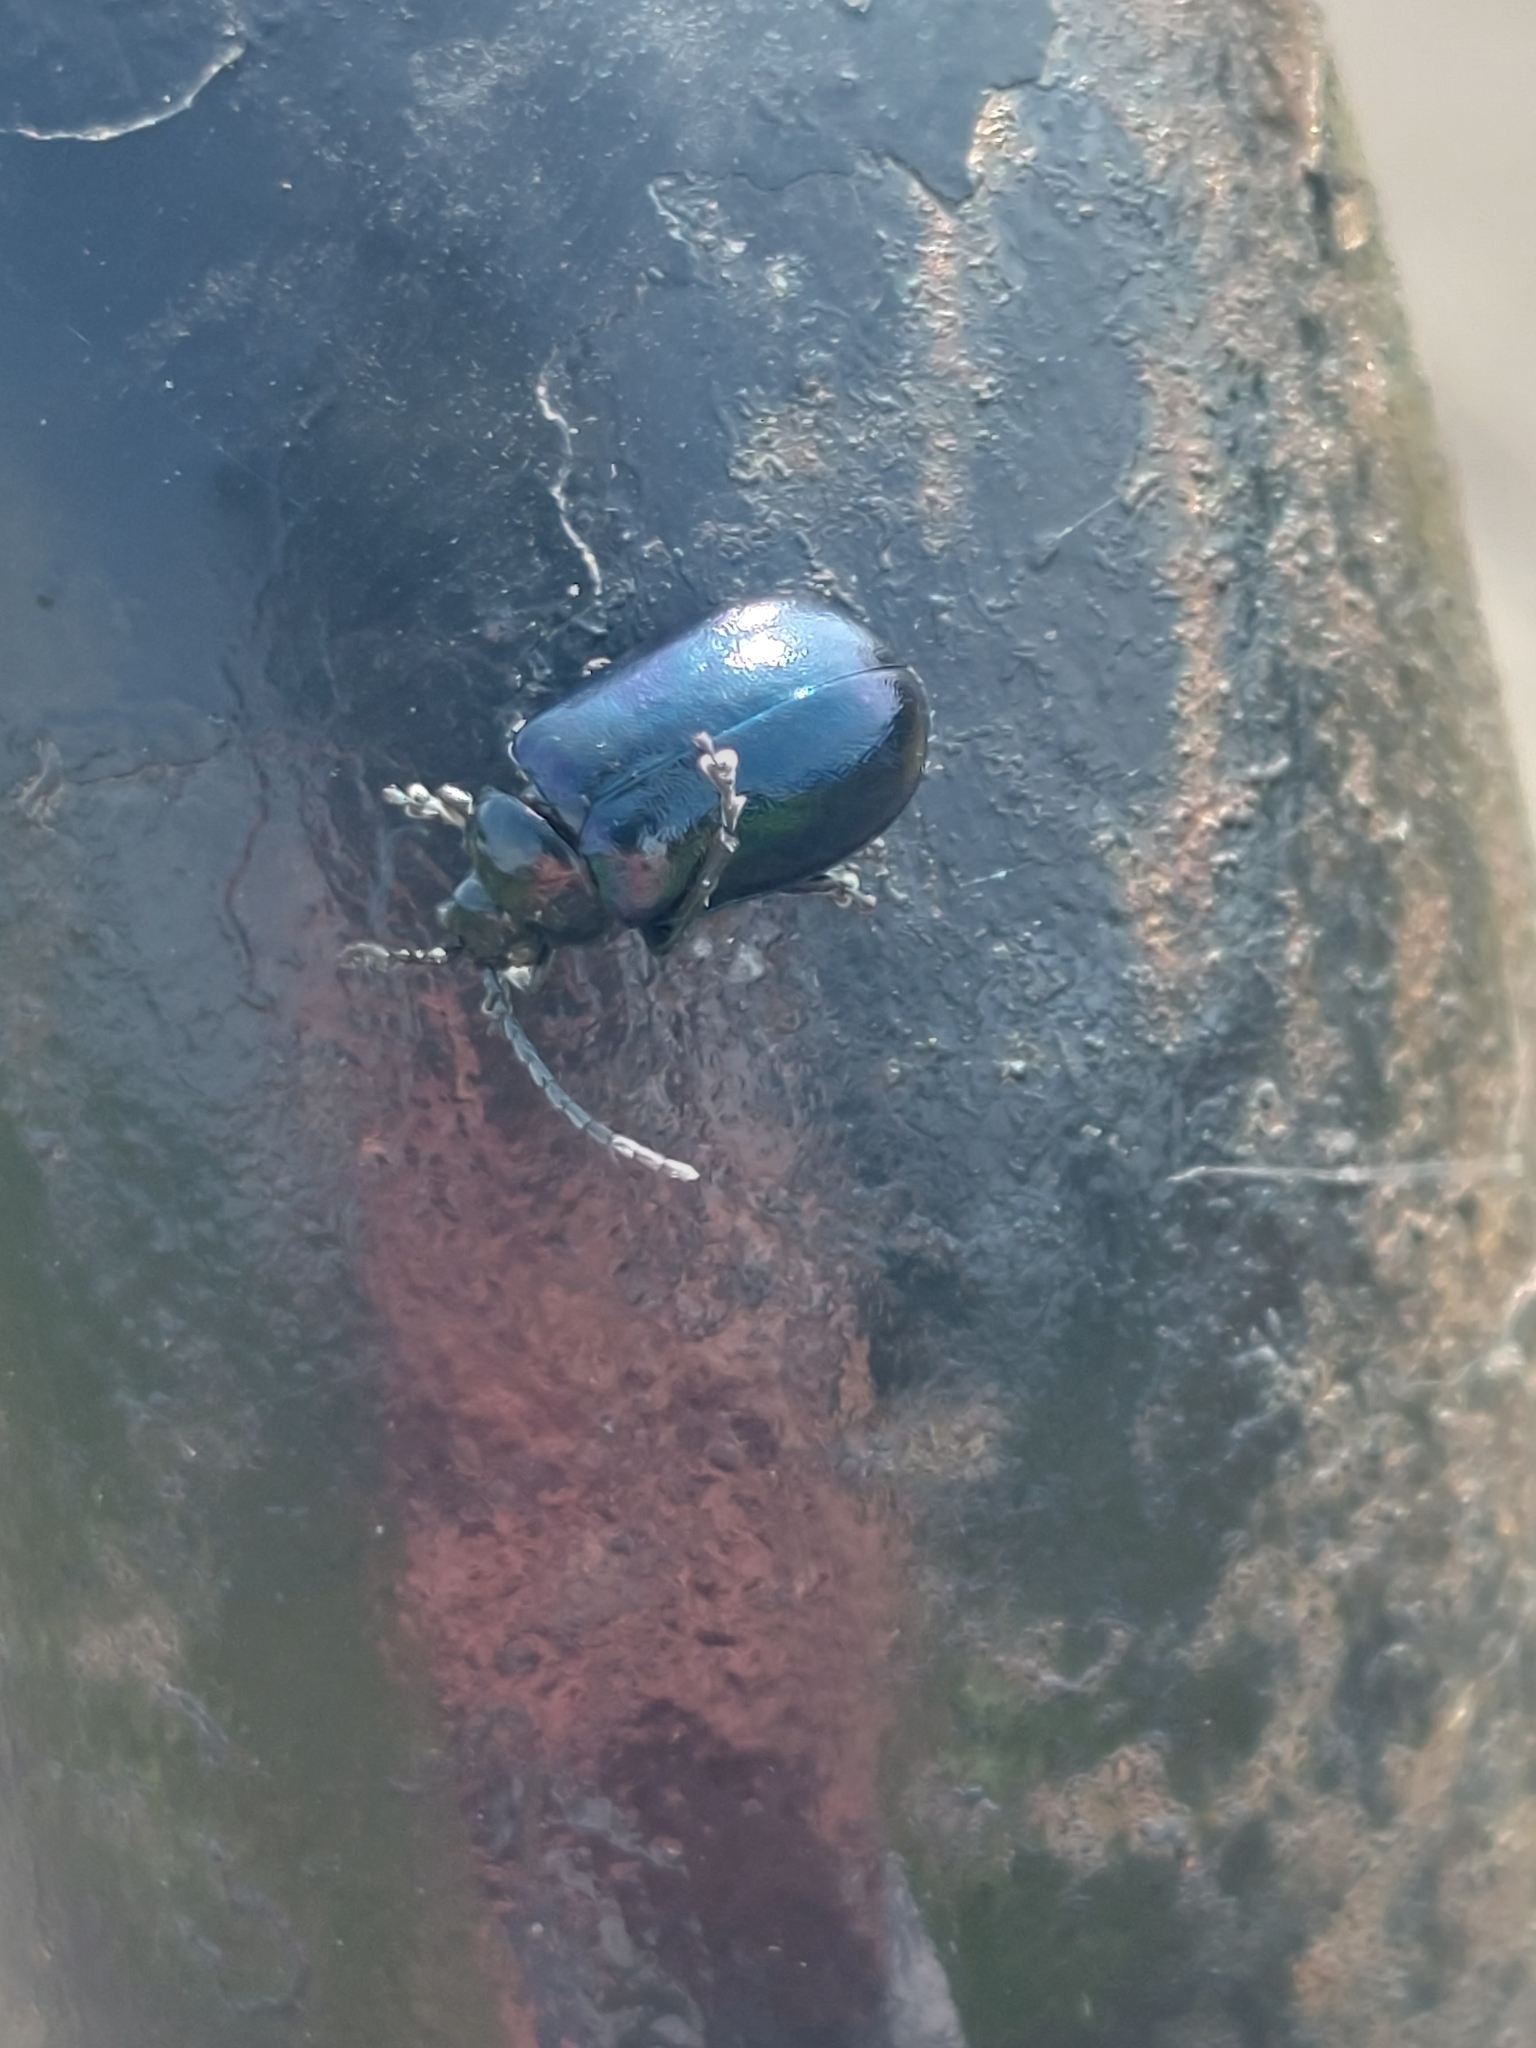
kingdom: Animalia
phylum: Arthropoda
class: Insecta
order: Coleoptera
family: Chrysomelidae
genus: Agelastica
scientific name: Agelastica alni
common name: Alder leaf beetle
